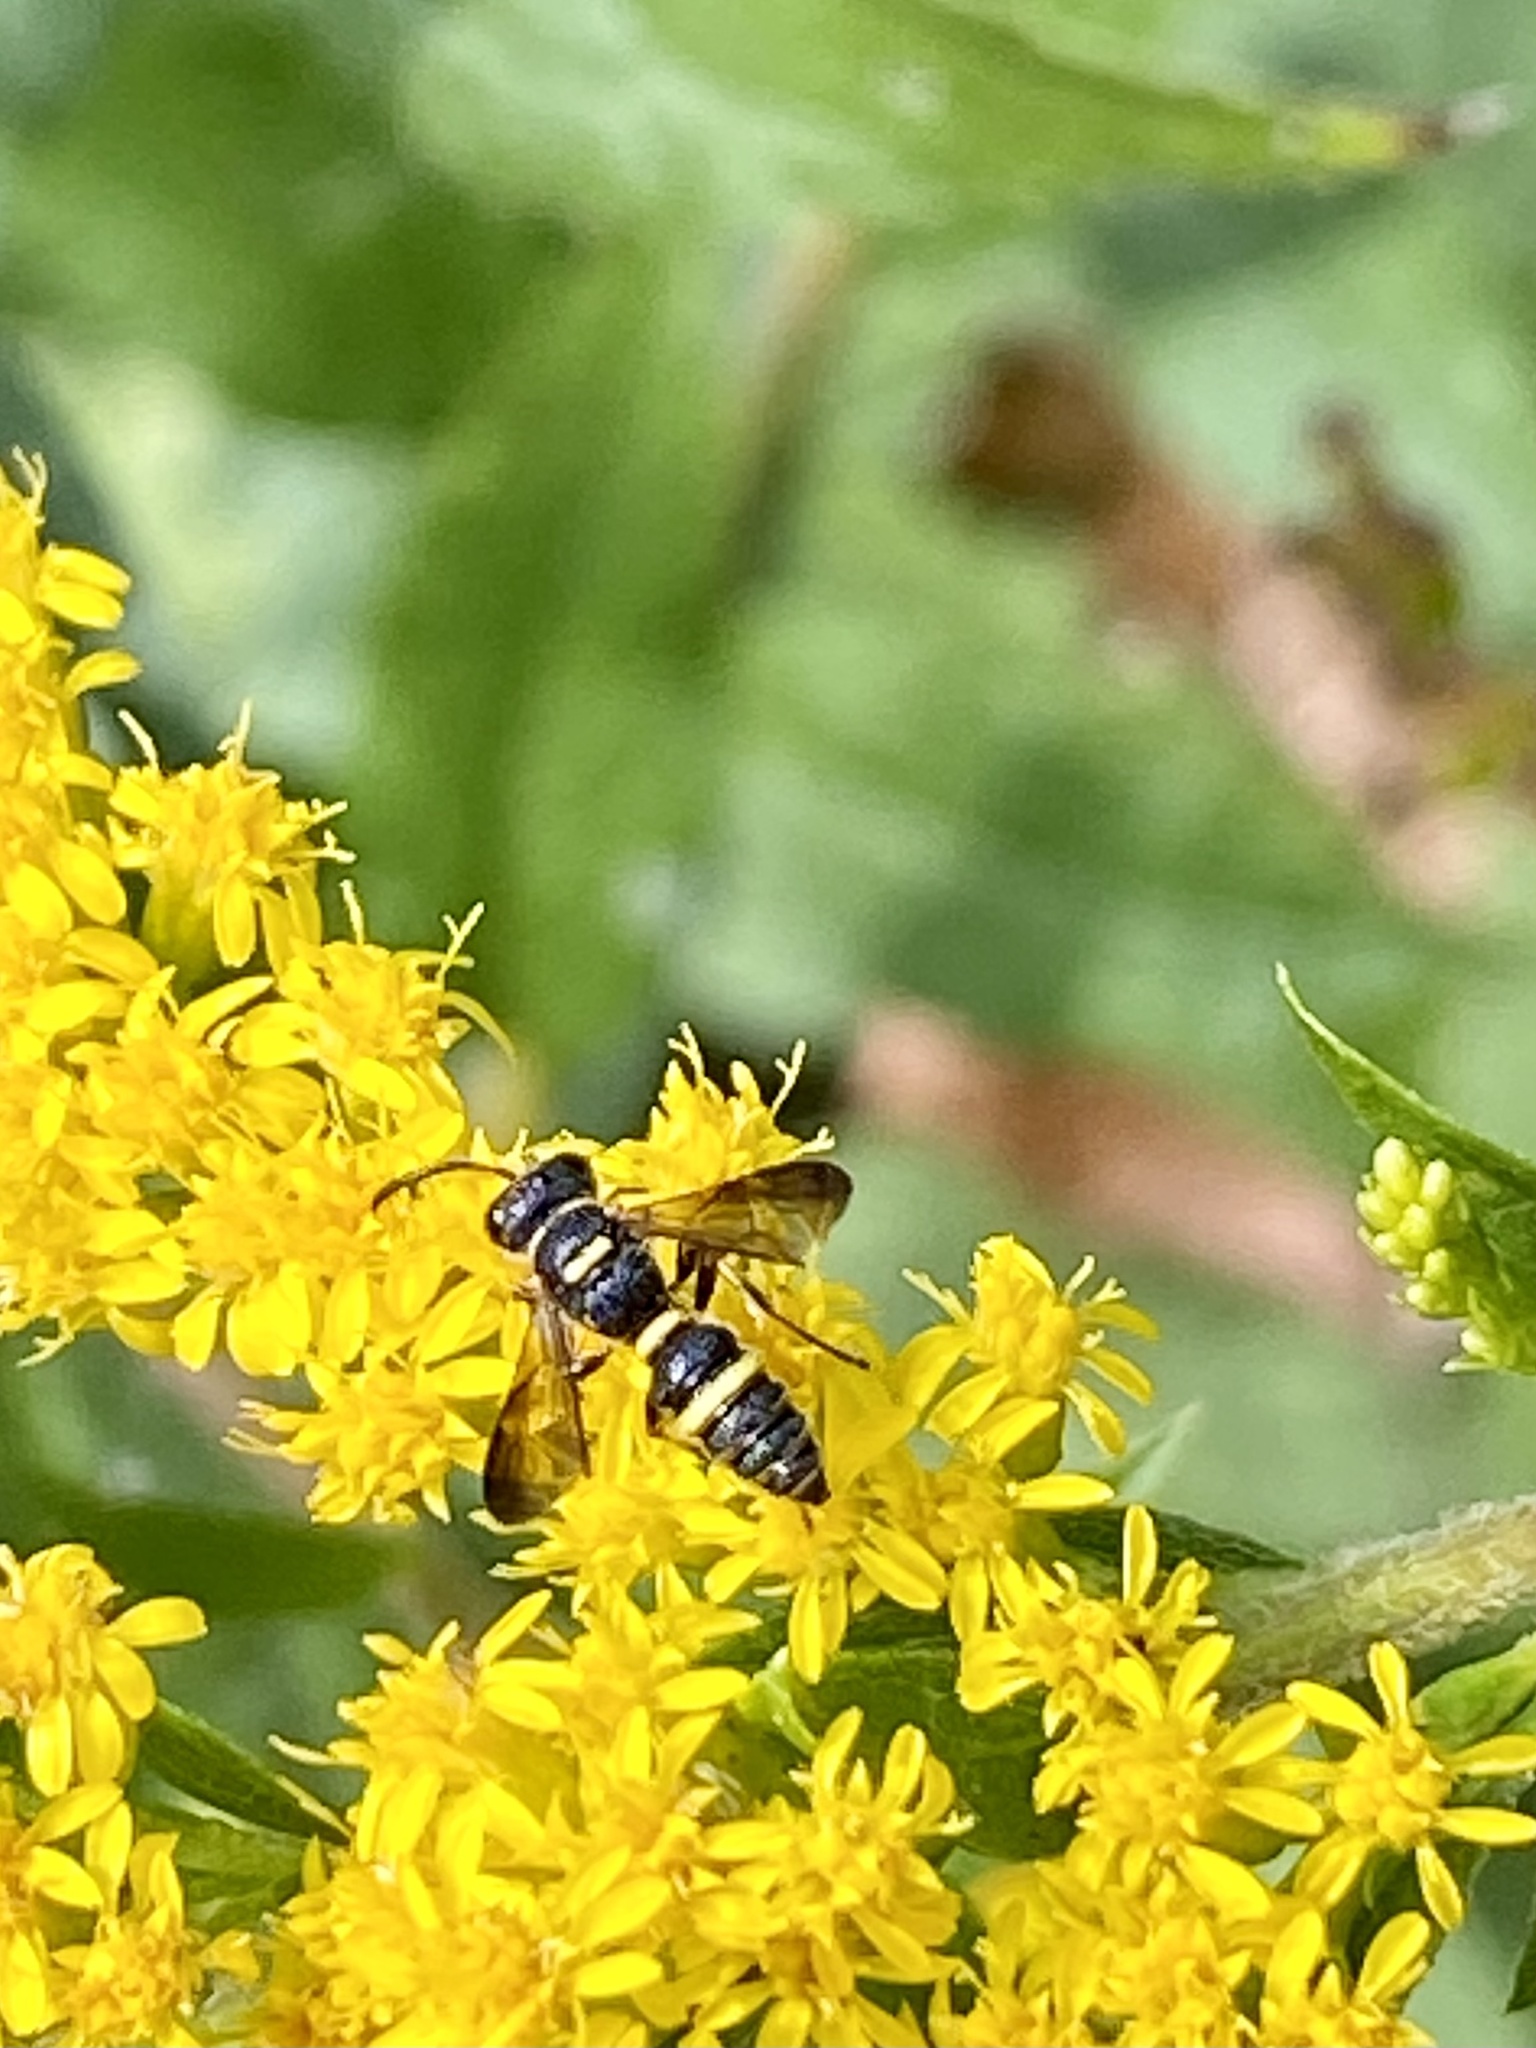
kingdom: Animalia
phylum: Arthropoda
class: Insecta
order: Hymenoptera
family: Crabronidae
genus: Cerceris
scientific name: Cerceris insolita
